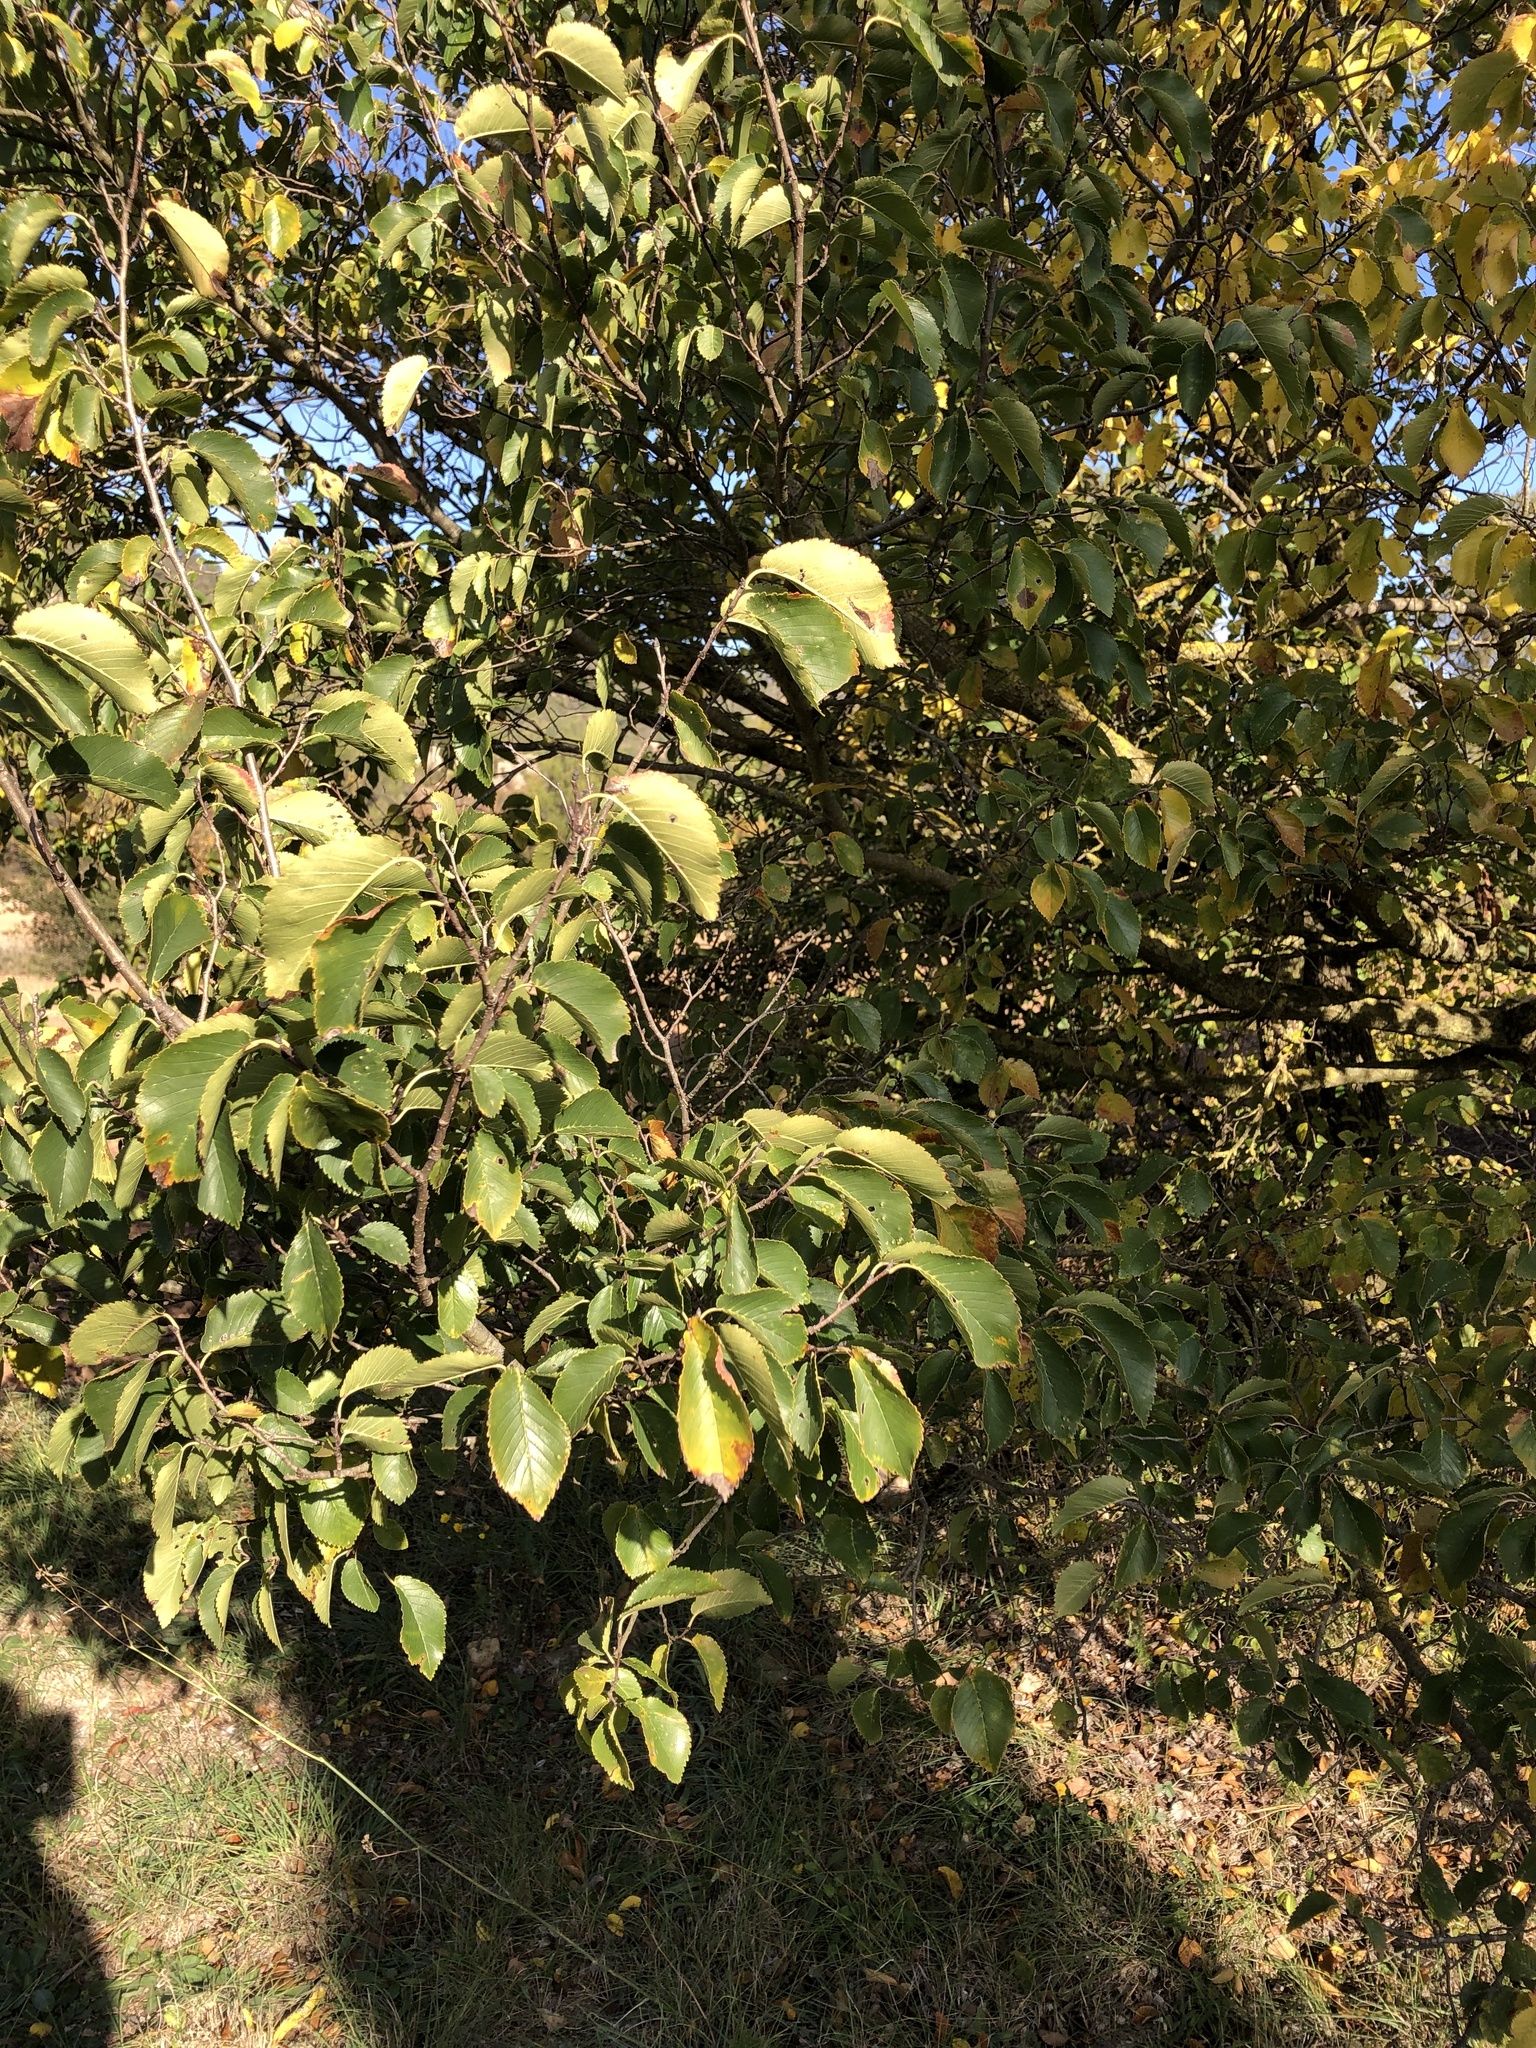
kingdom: Plantae
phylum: Tracheophyta
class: Magnoliopsida
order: Rosales
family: Ulmaceae
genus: Ulmus
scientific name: Ulmus minor
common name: Small-leaved elm
